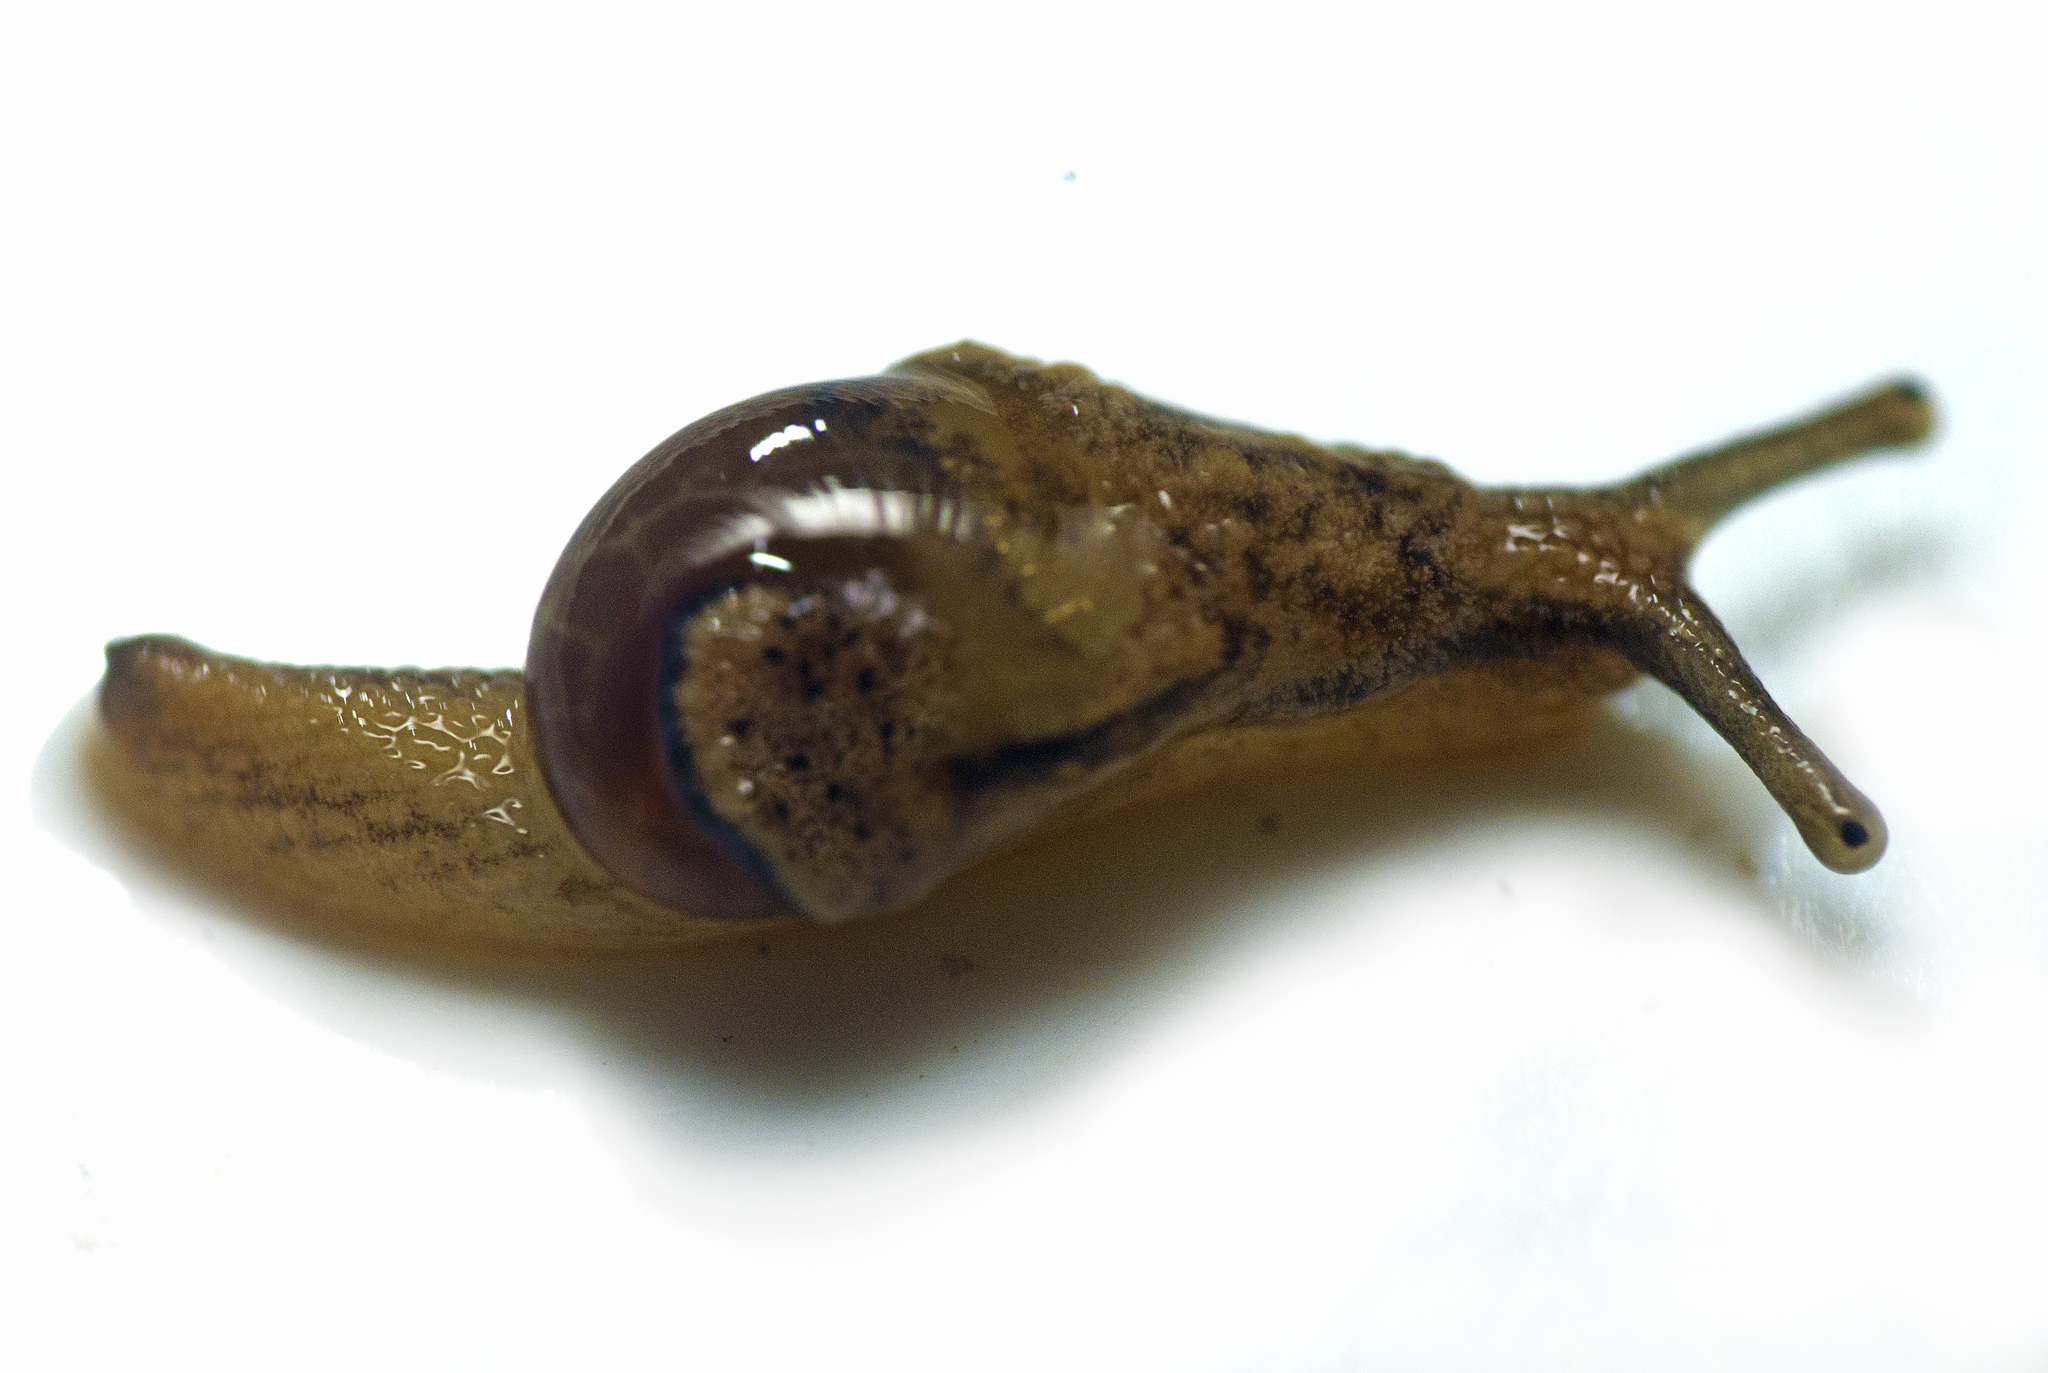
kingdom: Animalia
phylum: Mollusca
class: Gastropoda
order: Stylommatophora
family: Helicarionidae
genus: Ubiquitarion
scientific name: Ubiquitarion iridis
